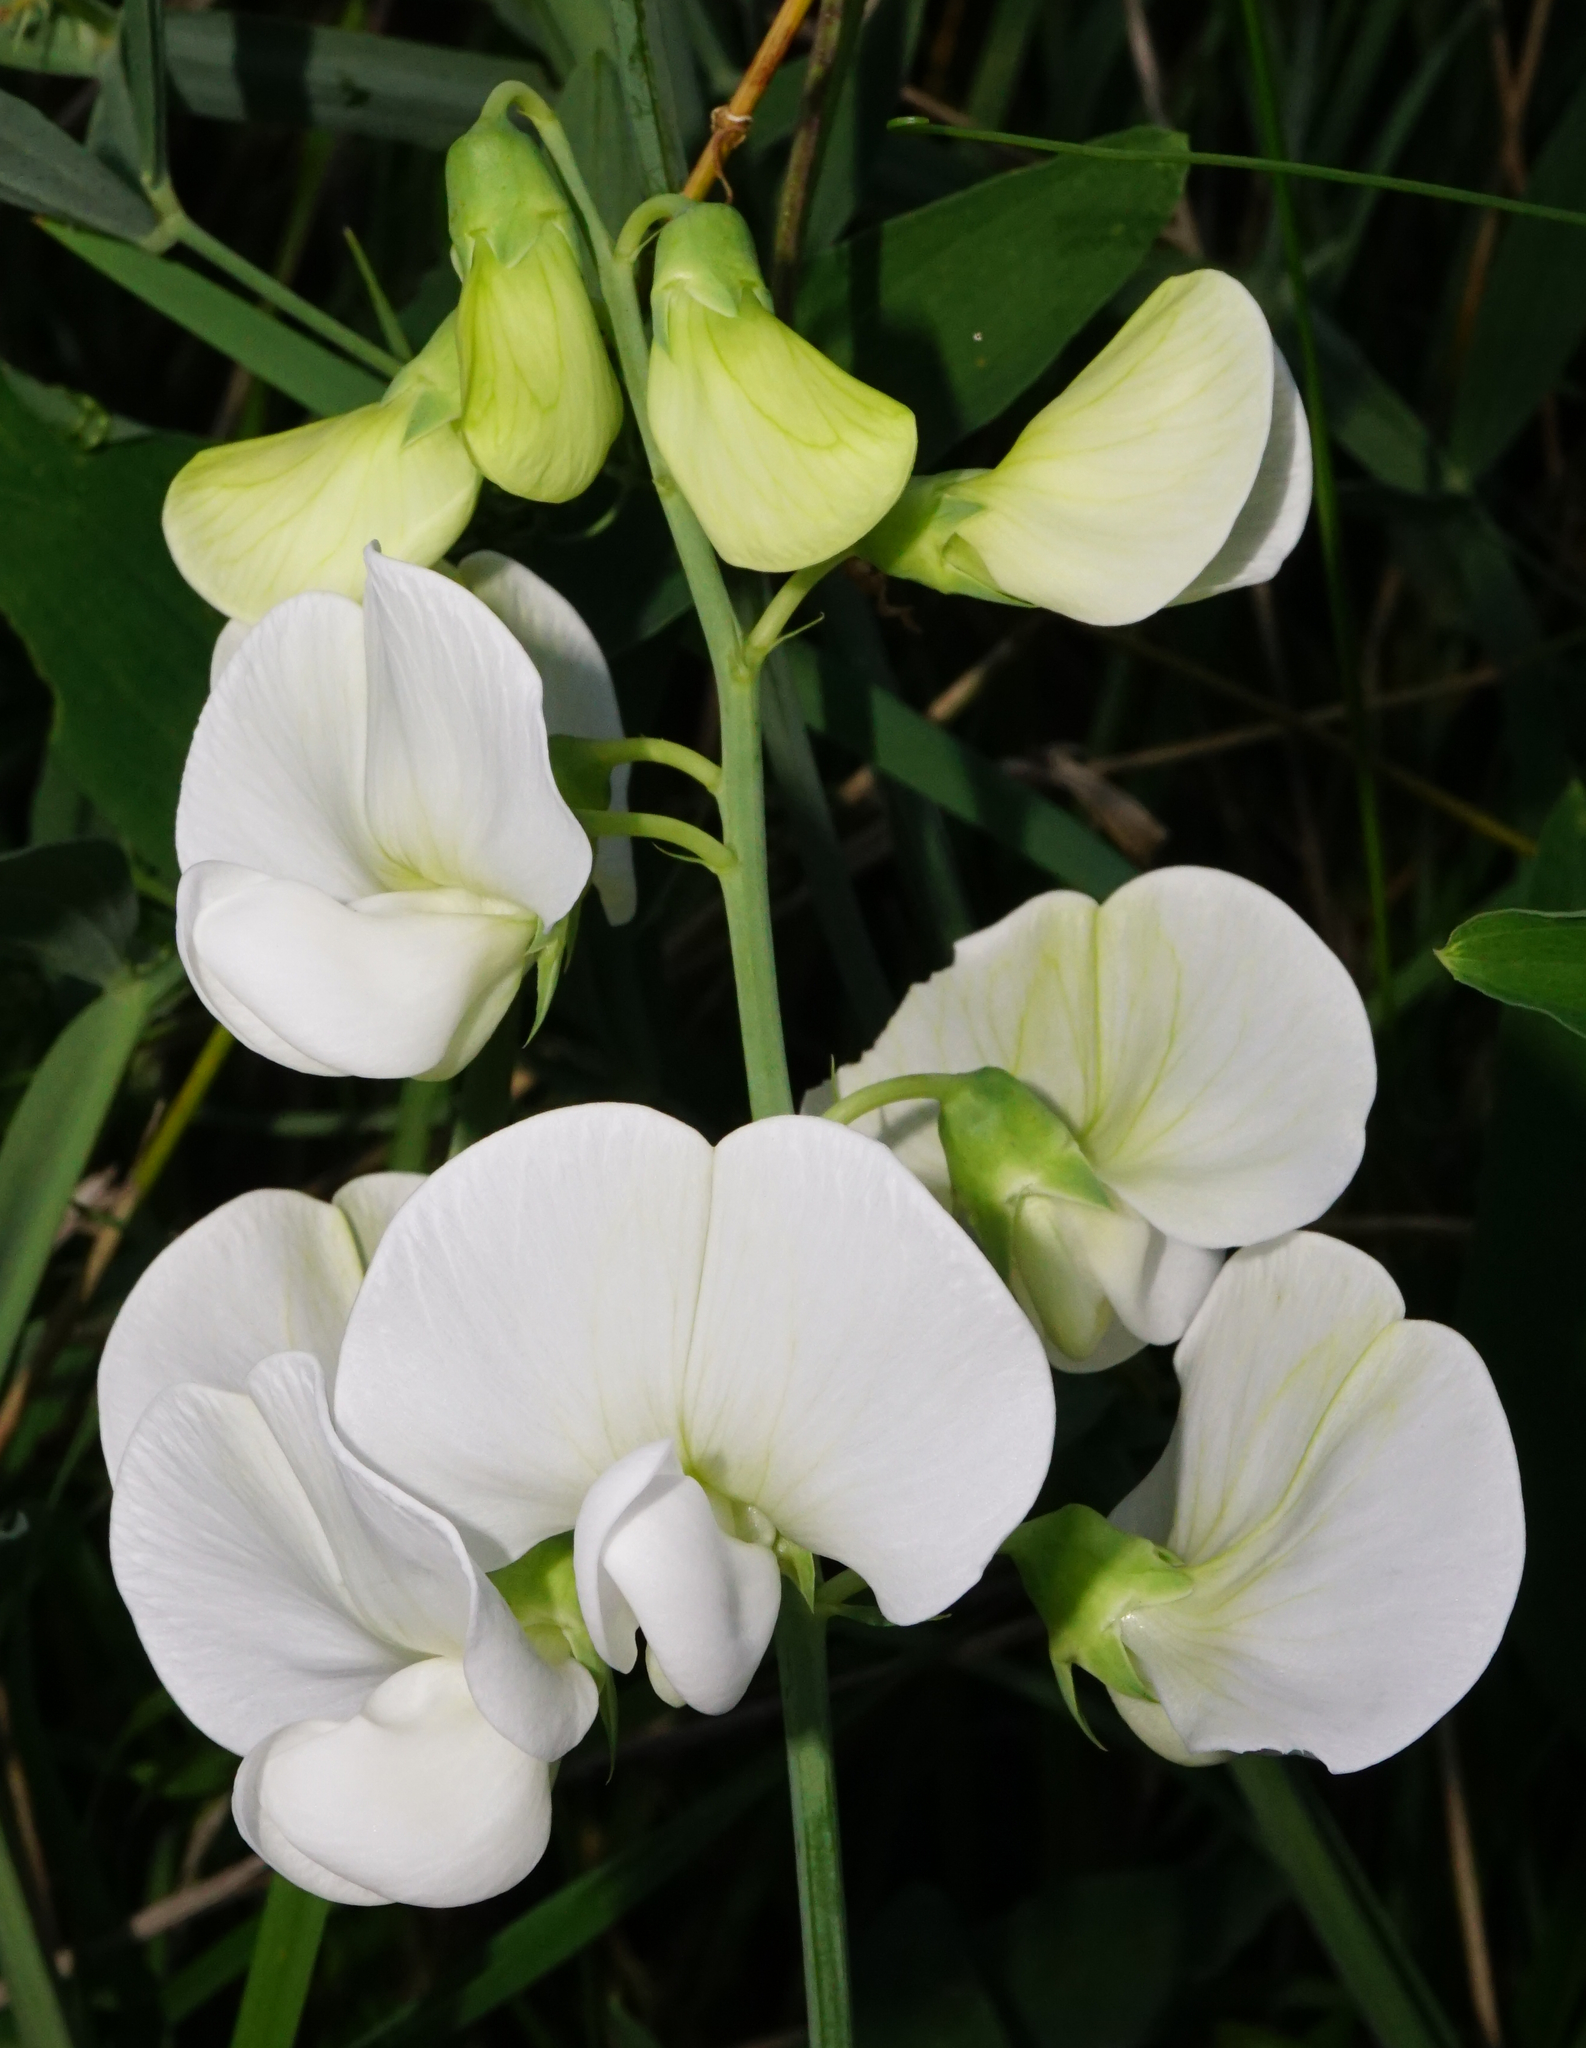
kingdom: Plantae
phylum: Tracheophyta
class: Magnoliopsida
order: Fabales
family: Fabaceae
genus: Lathyrus
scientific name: Lathyrus latifolius
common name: Perennial pea
